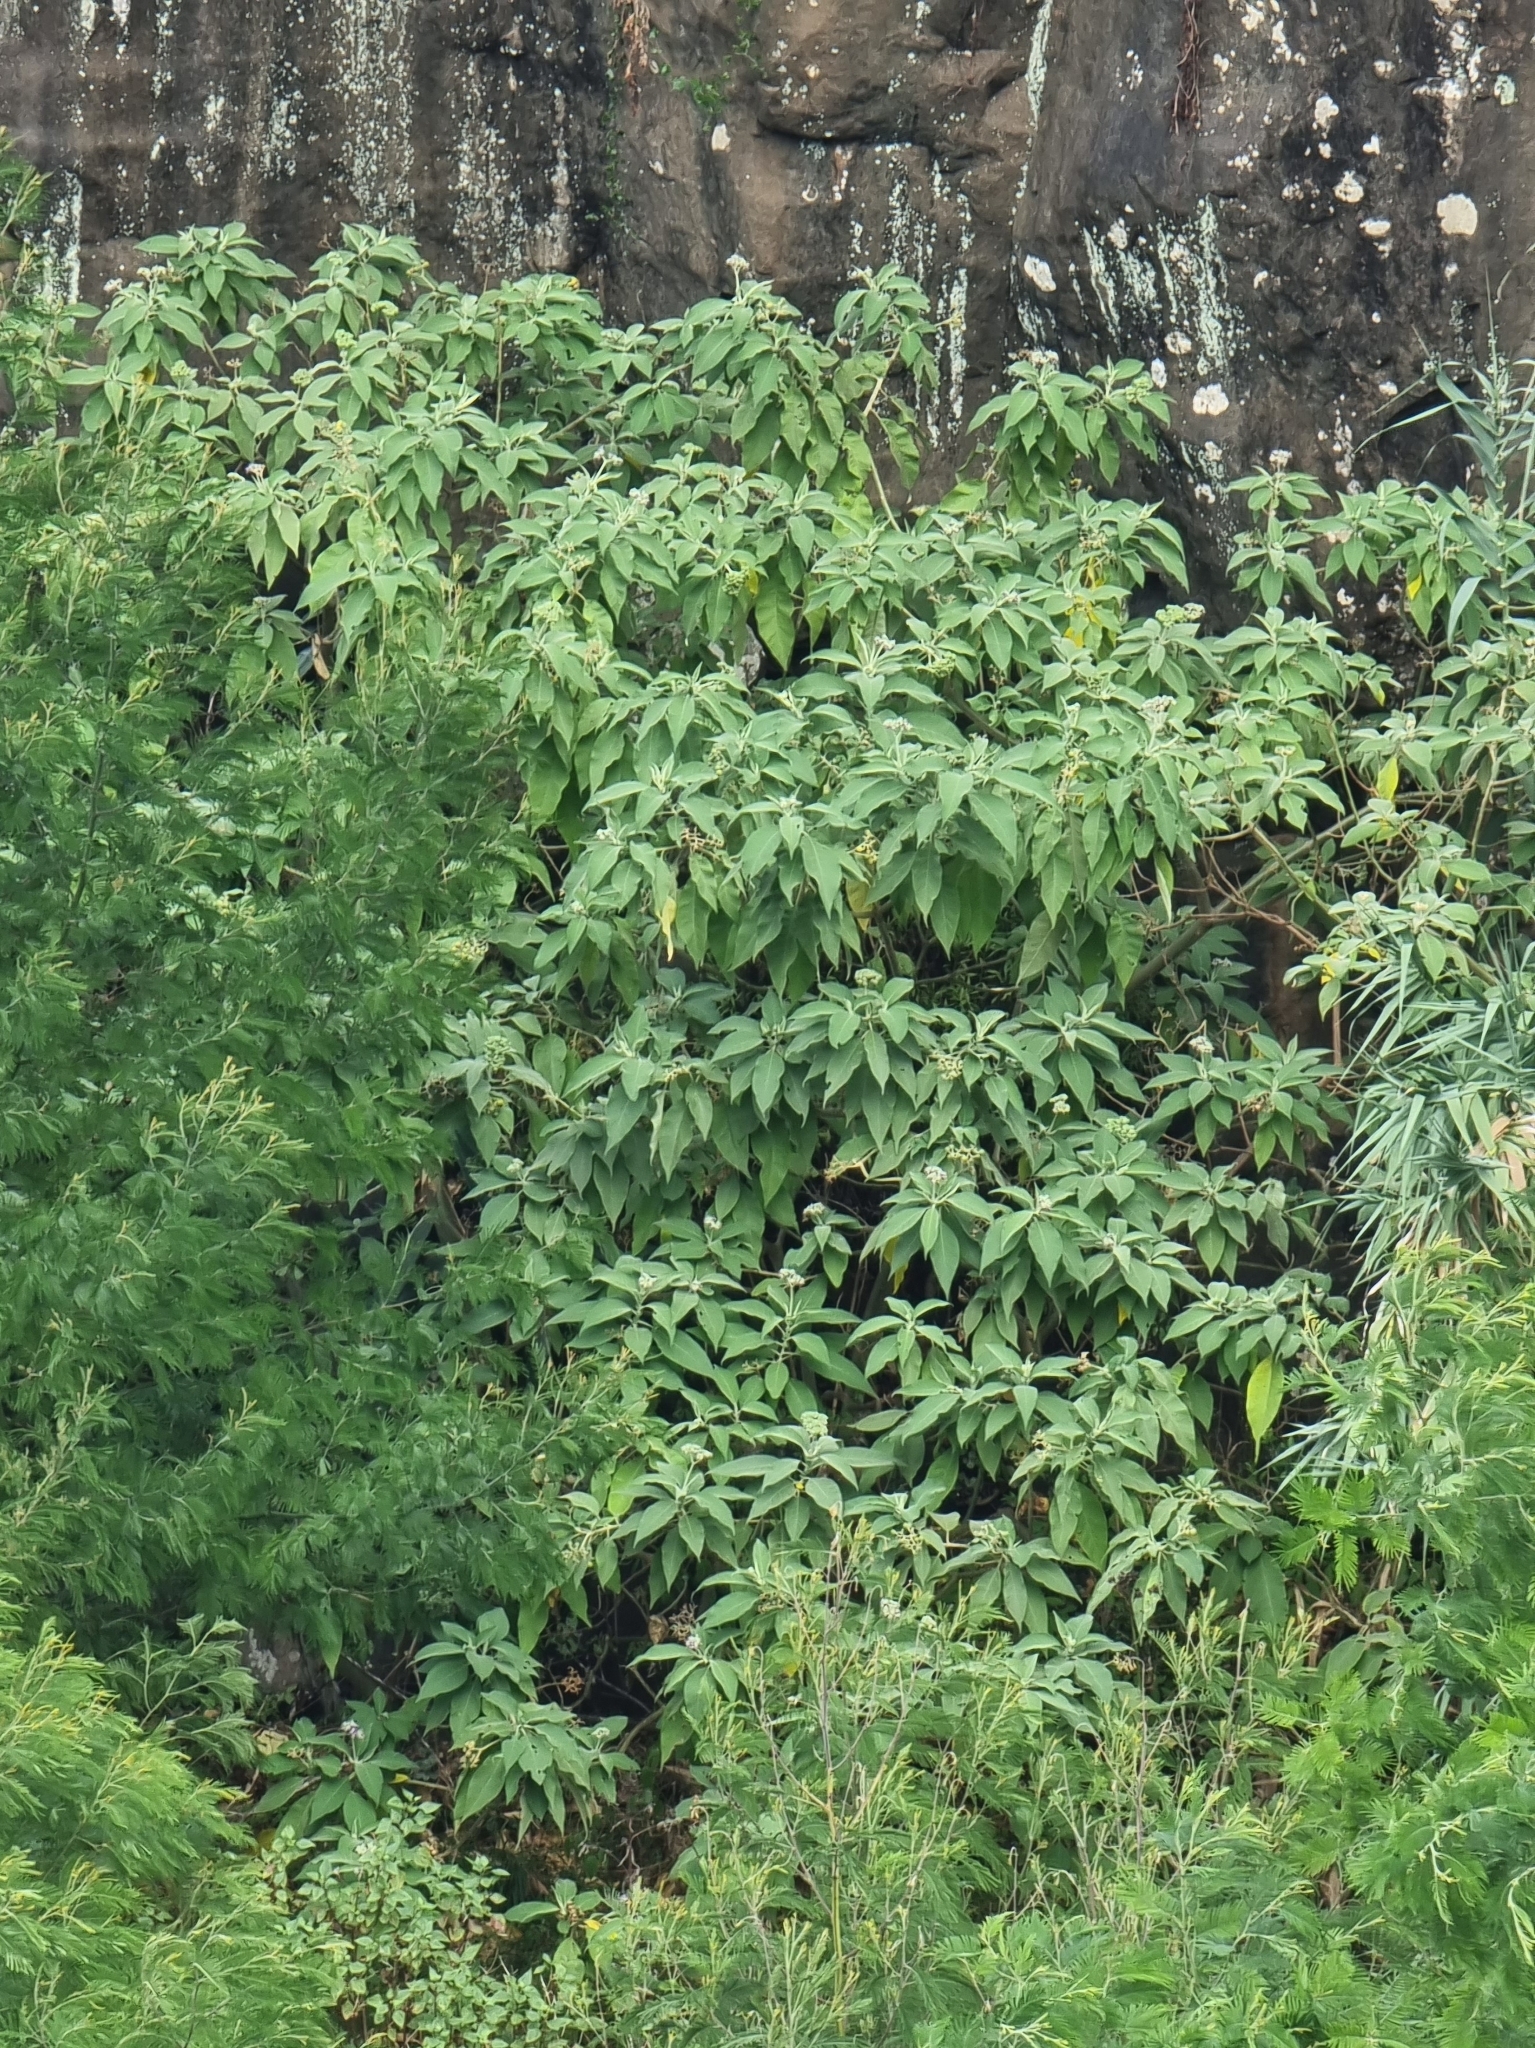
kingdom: Plantae
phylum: Tracheophyta
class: Magnoliopsida
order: Solanales
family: Solanaceae
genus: Solanum
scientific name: Solanum mauritianum
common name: Earleaf nightshade
